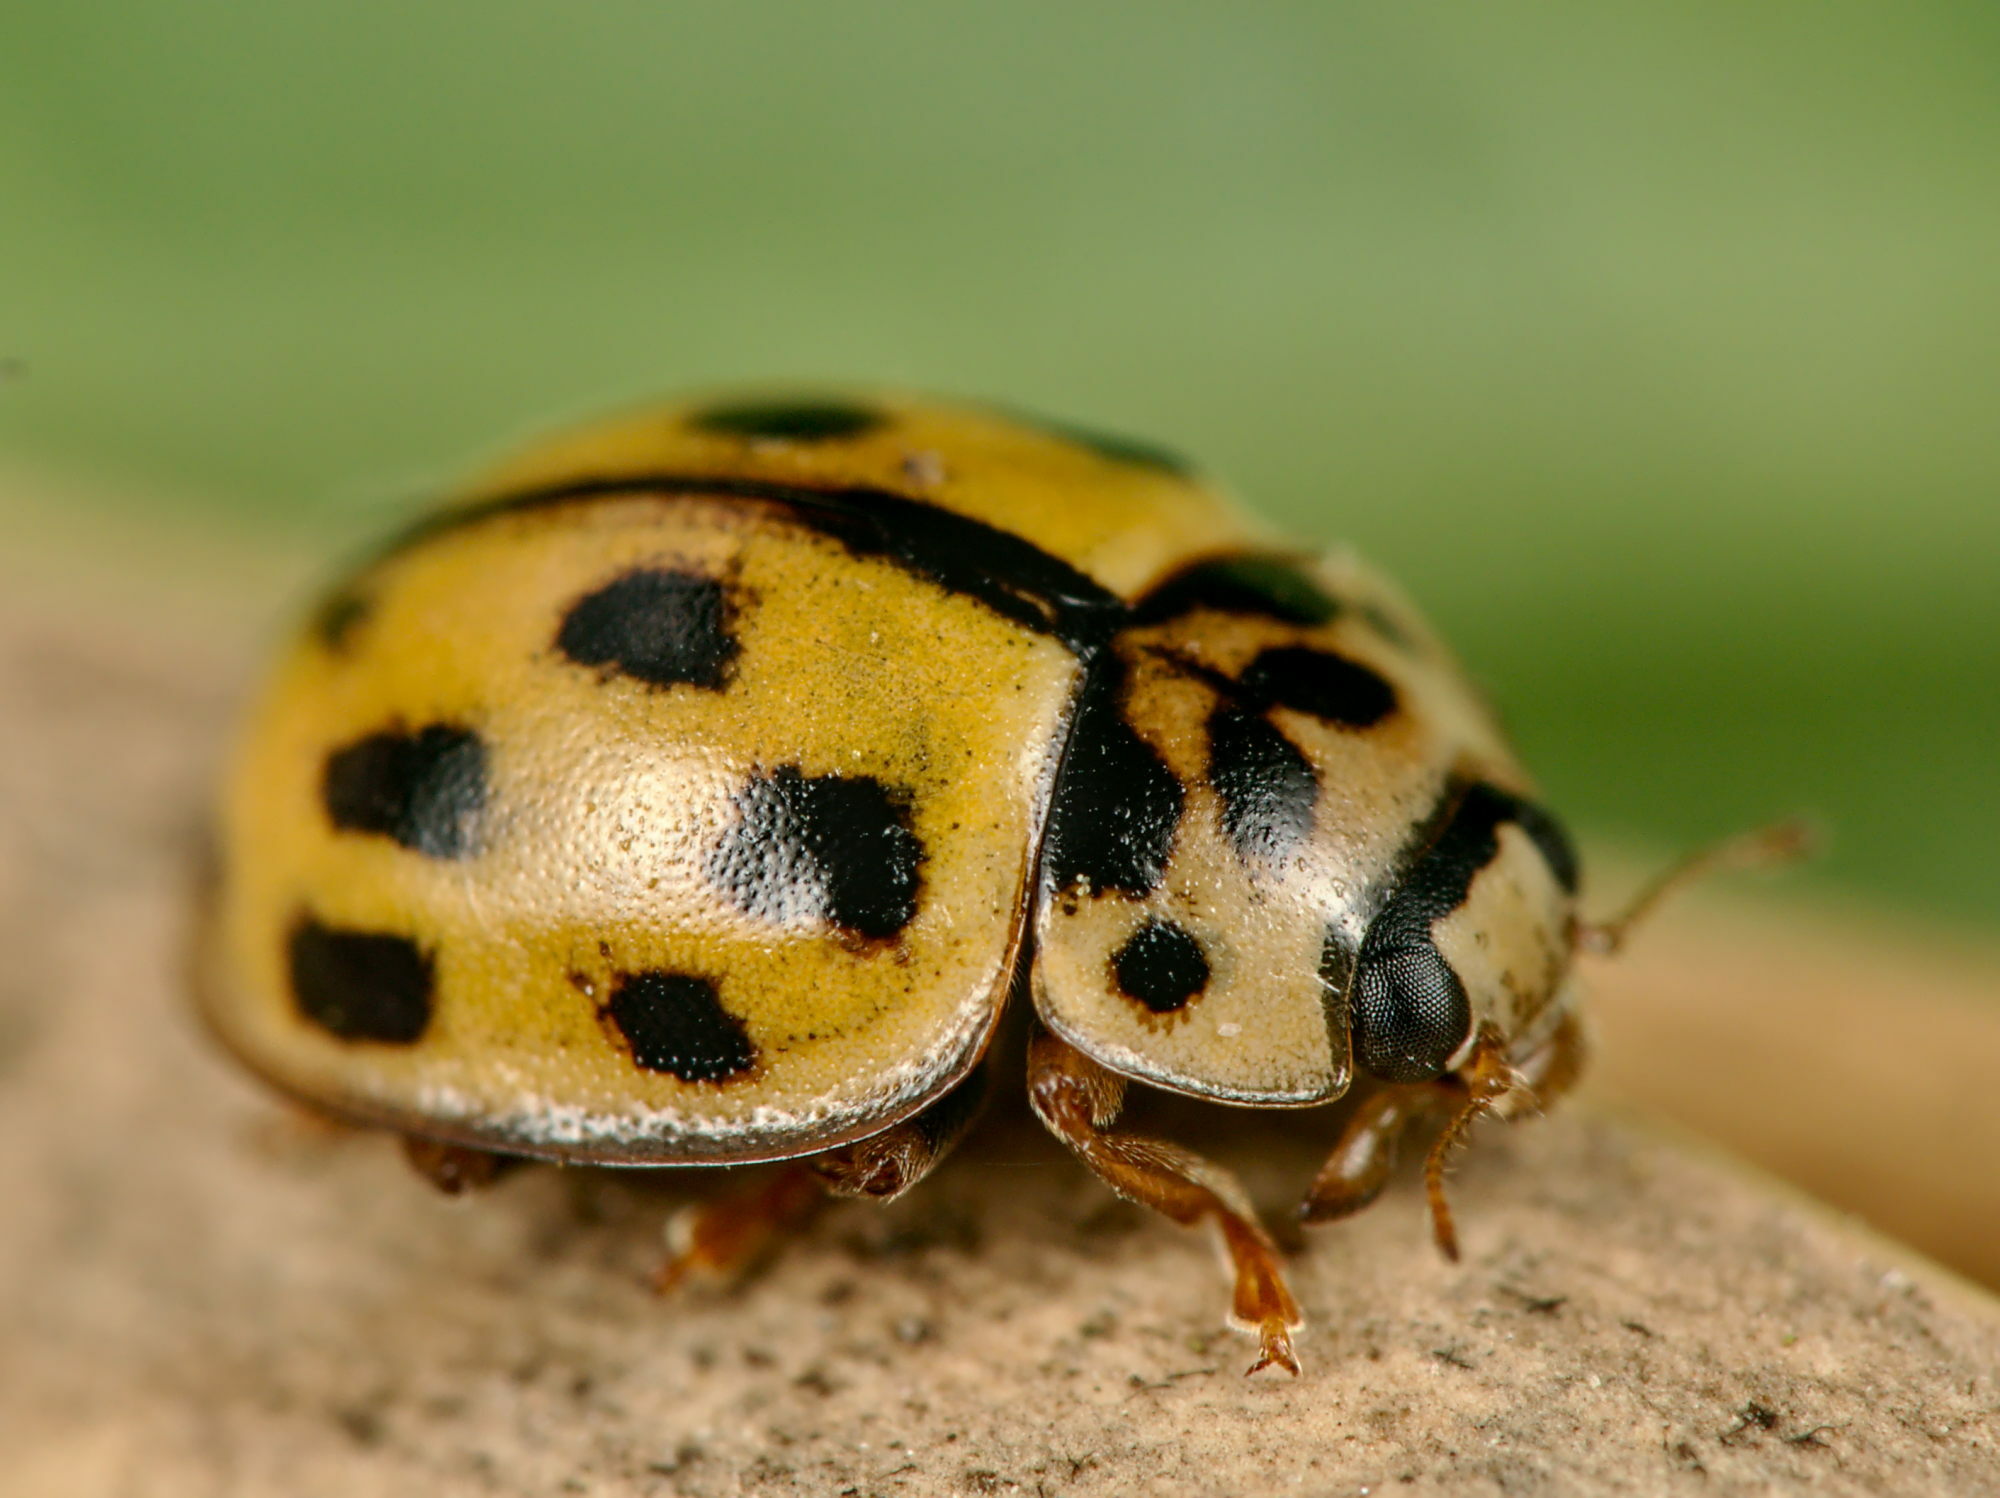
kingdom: Animalia
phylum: Arthropoda
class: Insecta
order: Coleoptera
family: Coccinellidae
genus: Propylaea
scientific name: Propylaea quatuordecimpunctata
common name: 14-spotted ladybird beetle
